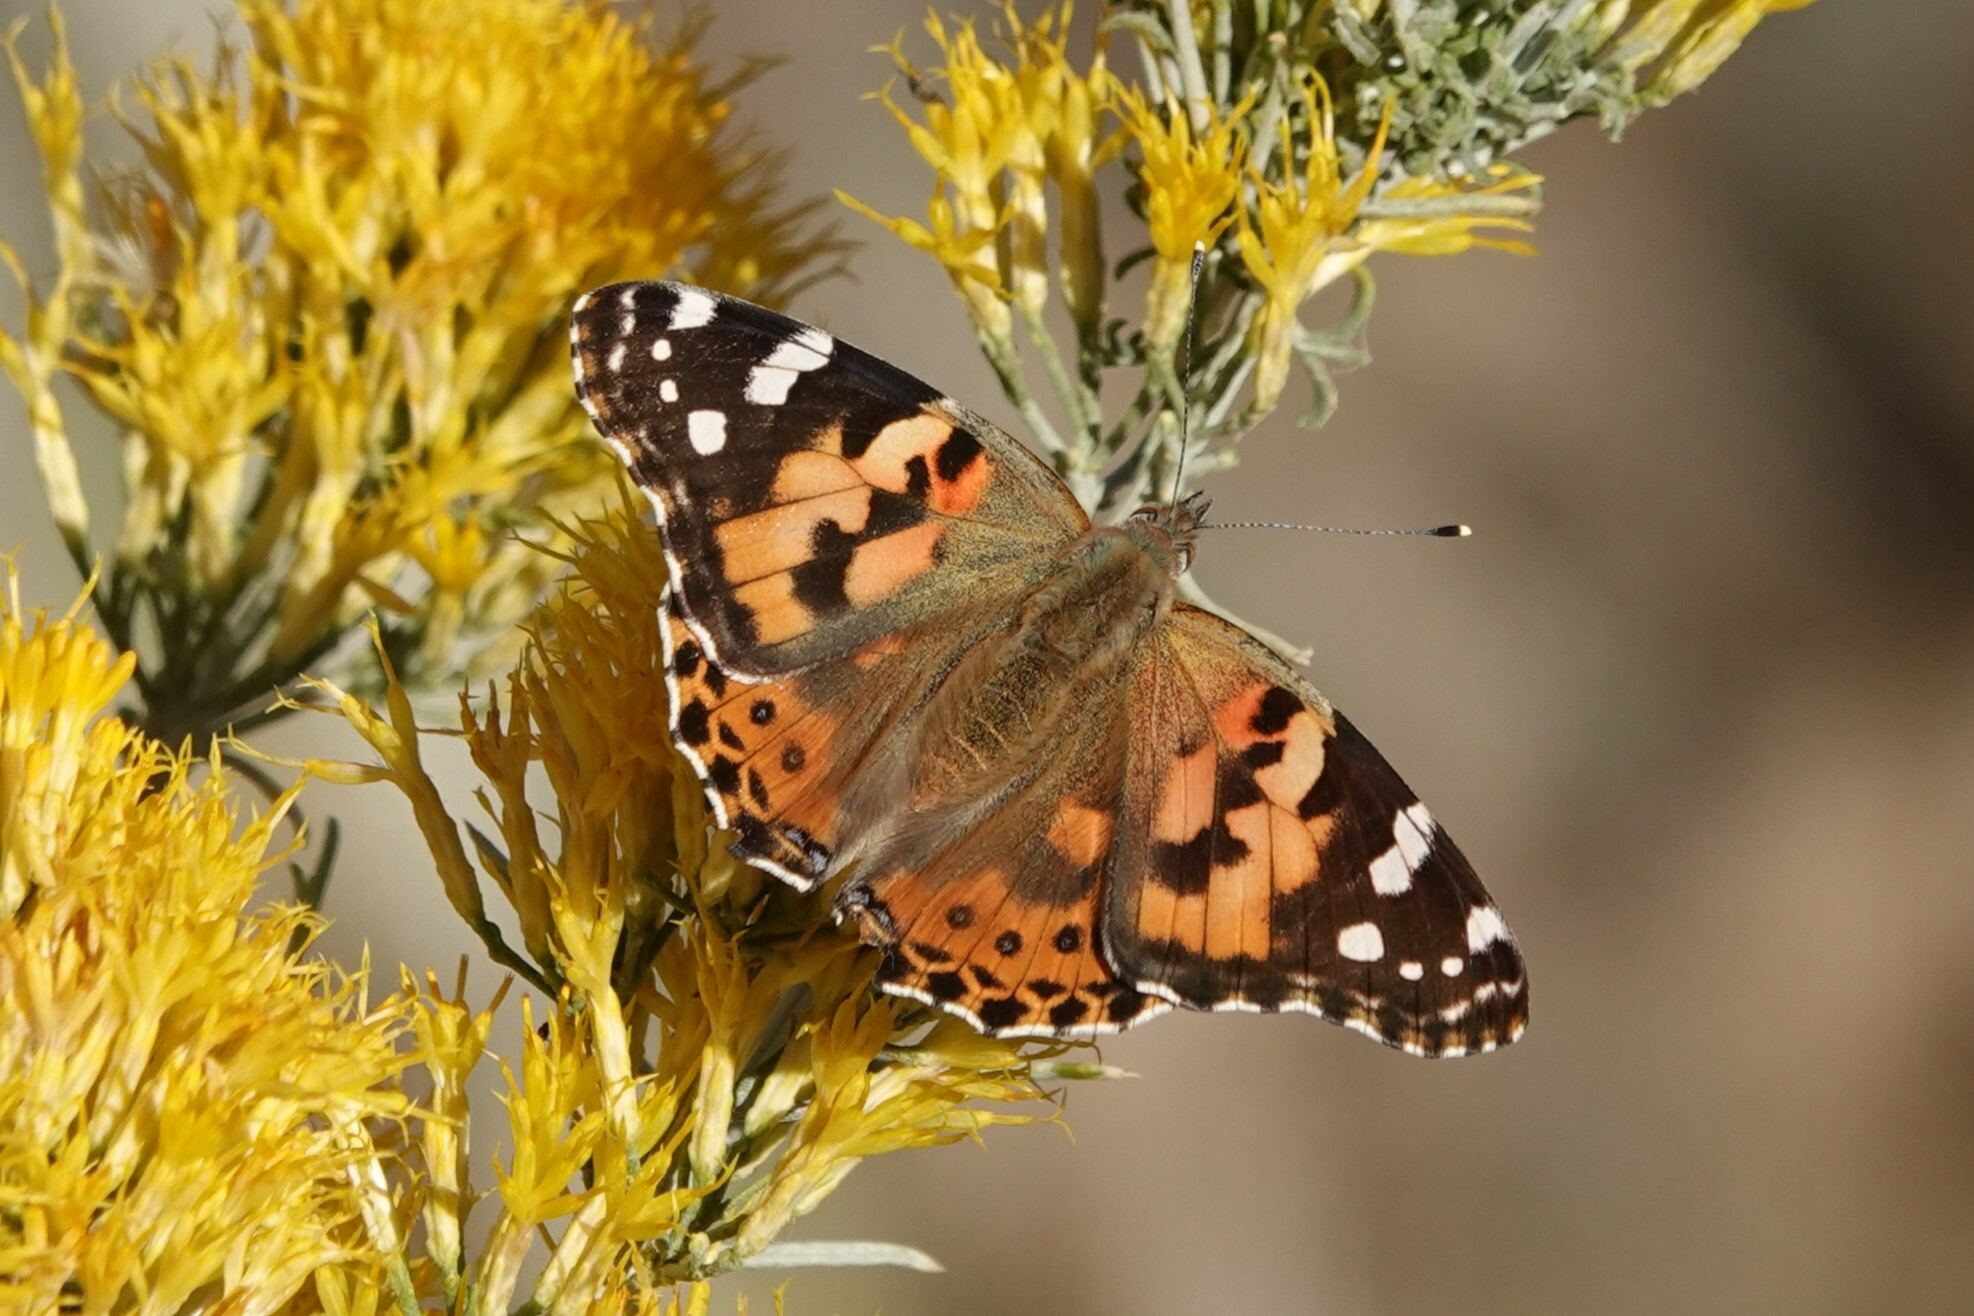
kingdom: Animalia
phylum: Arthropoda
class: Insecta
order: Lepidoptera
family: Nymphalidae
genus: Vanessa
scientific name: Vanessa cardui
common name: Painted lady
